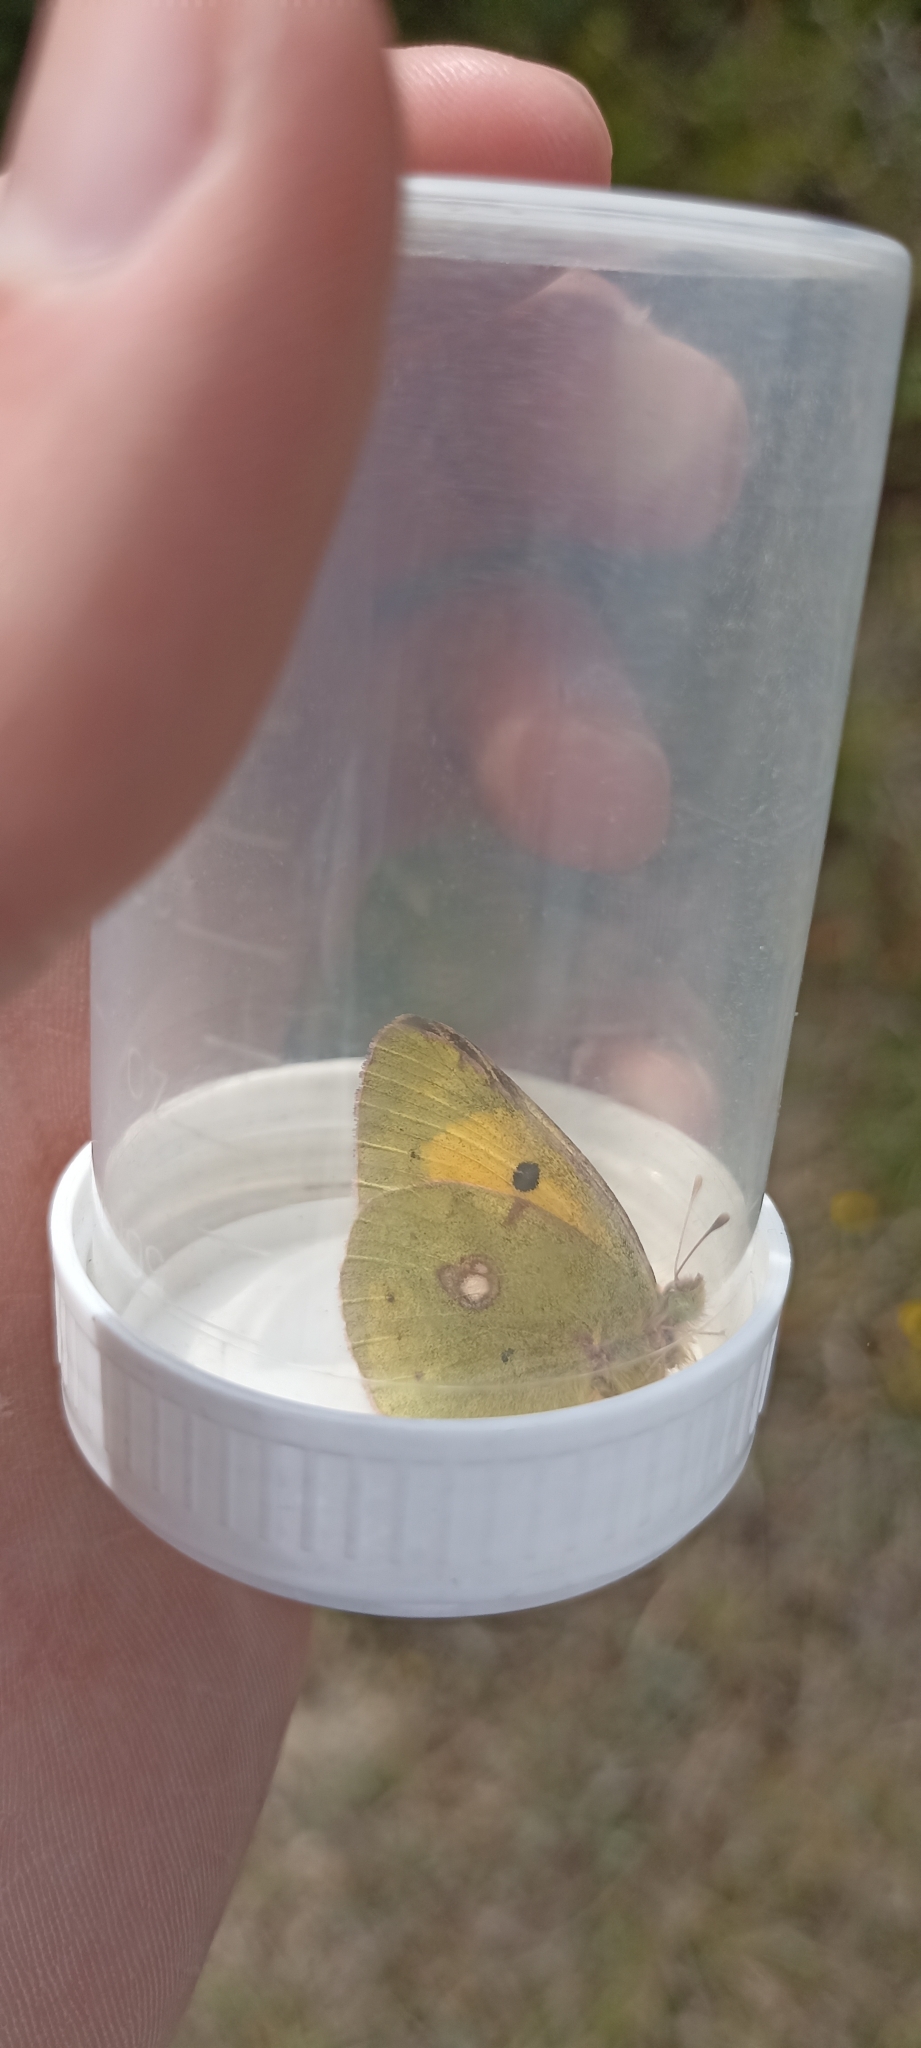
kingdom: Animalia
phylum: Arthropoda
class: Insecta
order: Lepidoptera
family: Pieridae
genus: Colias
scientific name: Colias croceus
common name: Clouded yellow
